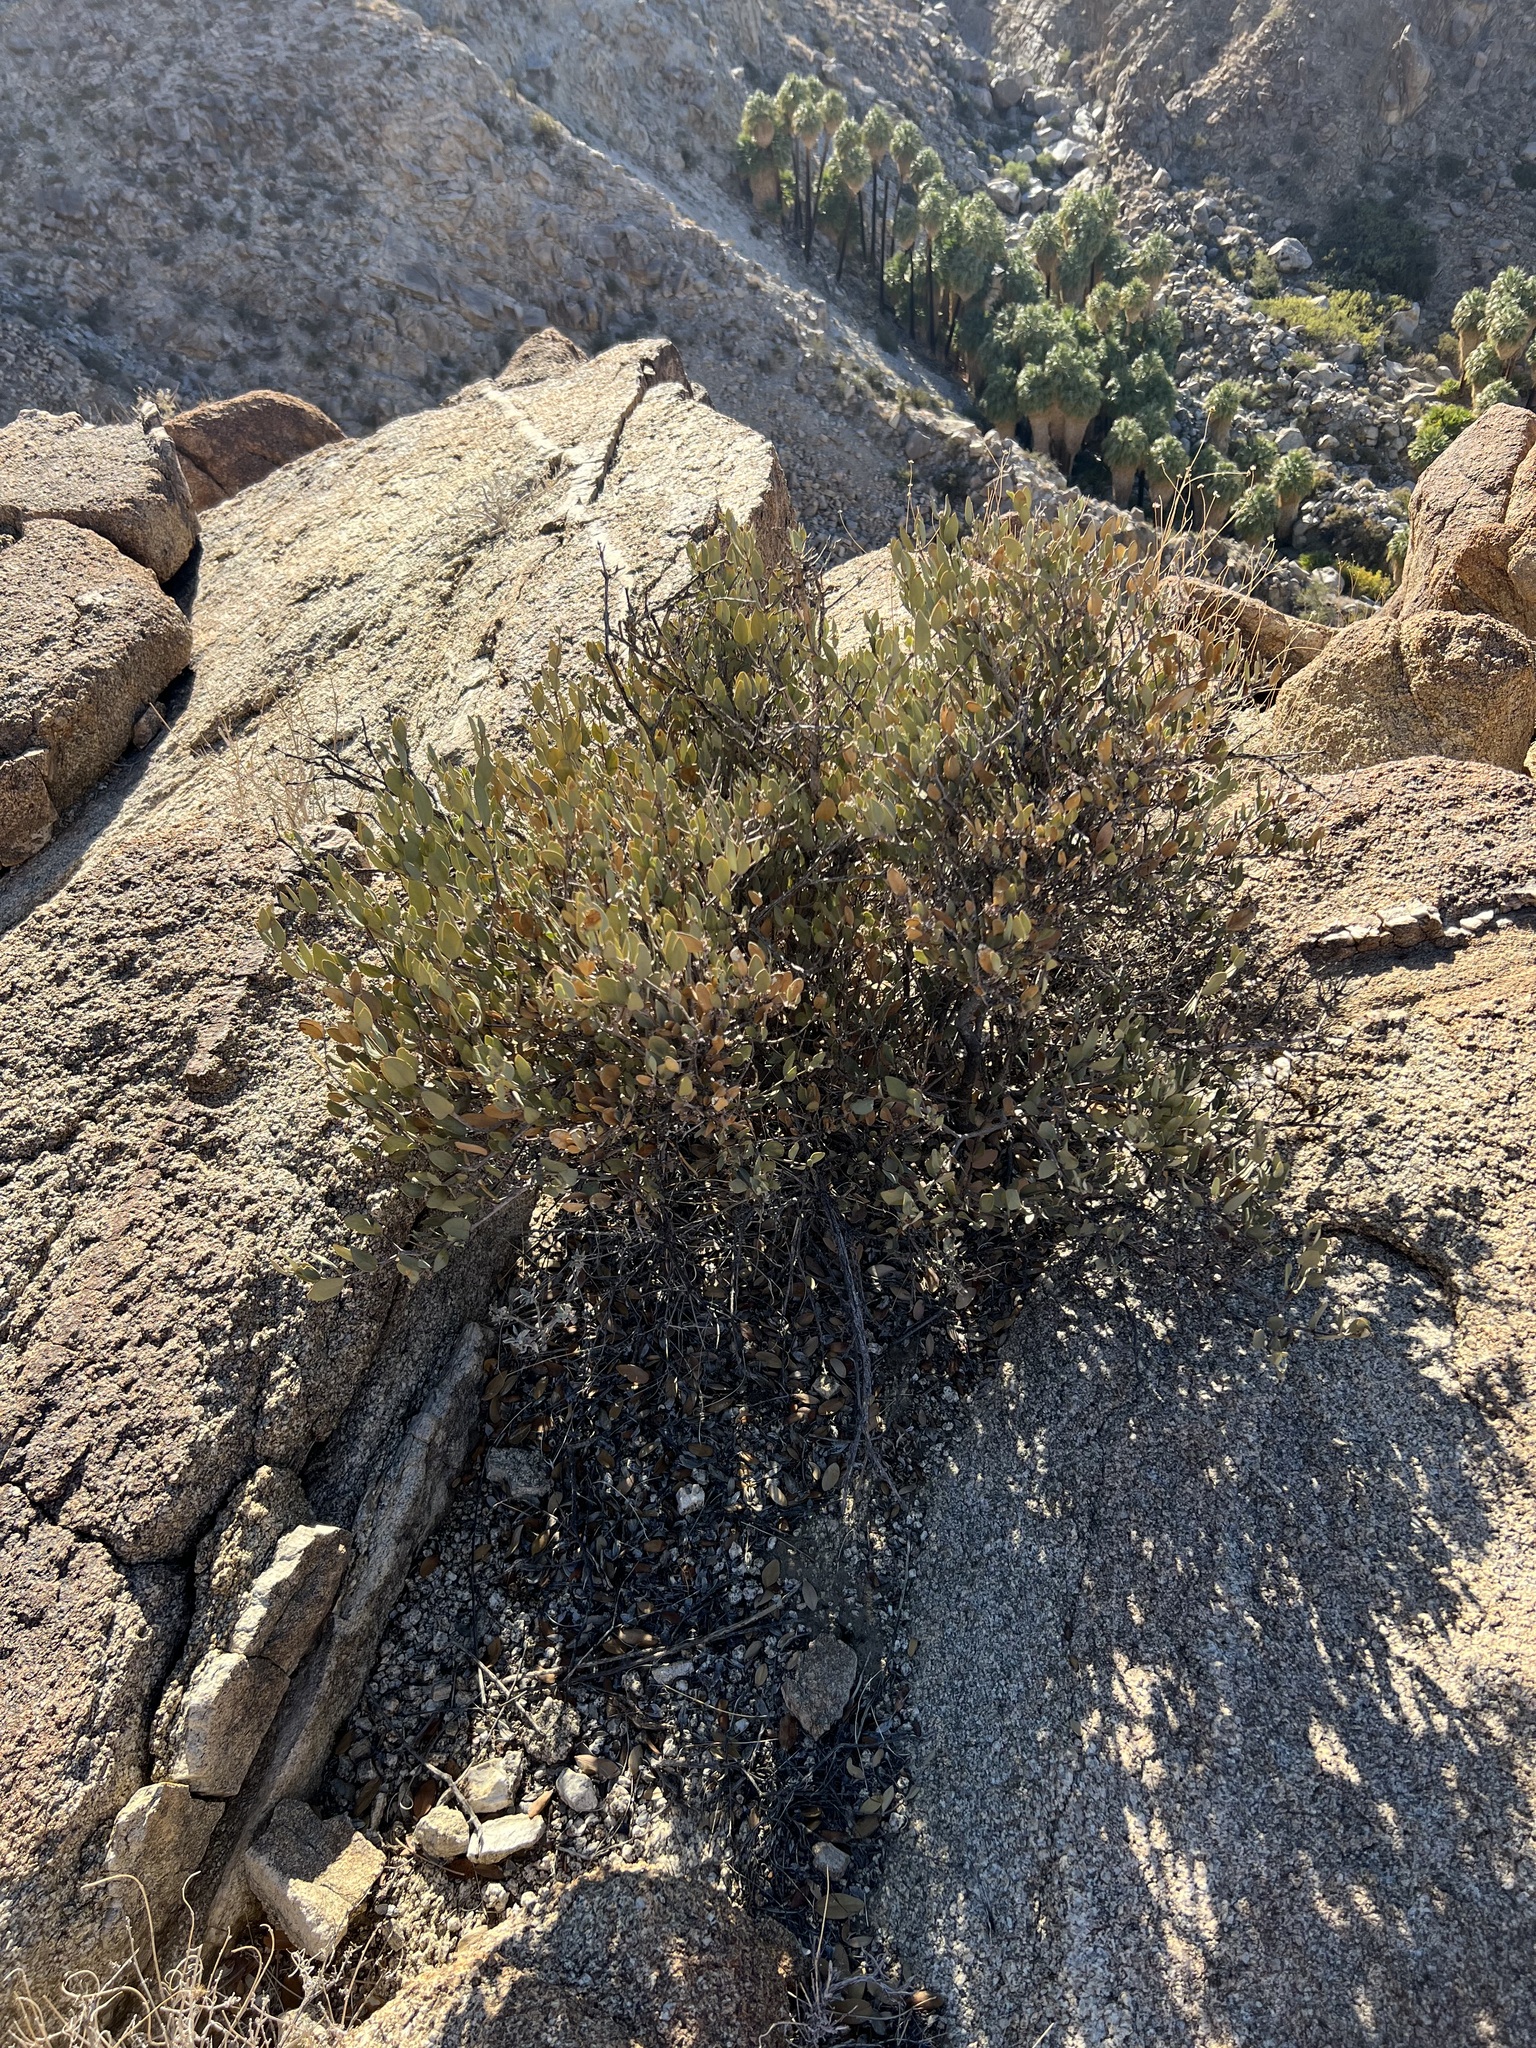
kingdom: Plantae
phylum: Tracheophyta
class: Magnoliopsida
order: Caryophyllales
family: Simmondsiaceae
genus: Simmondsia
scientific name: Simmondsia chinensis
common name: Jojoba
